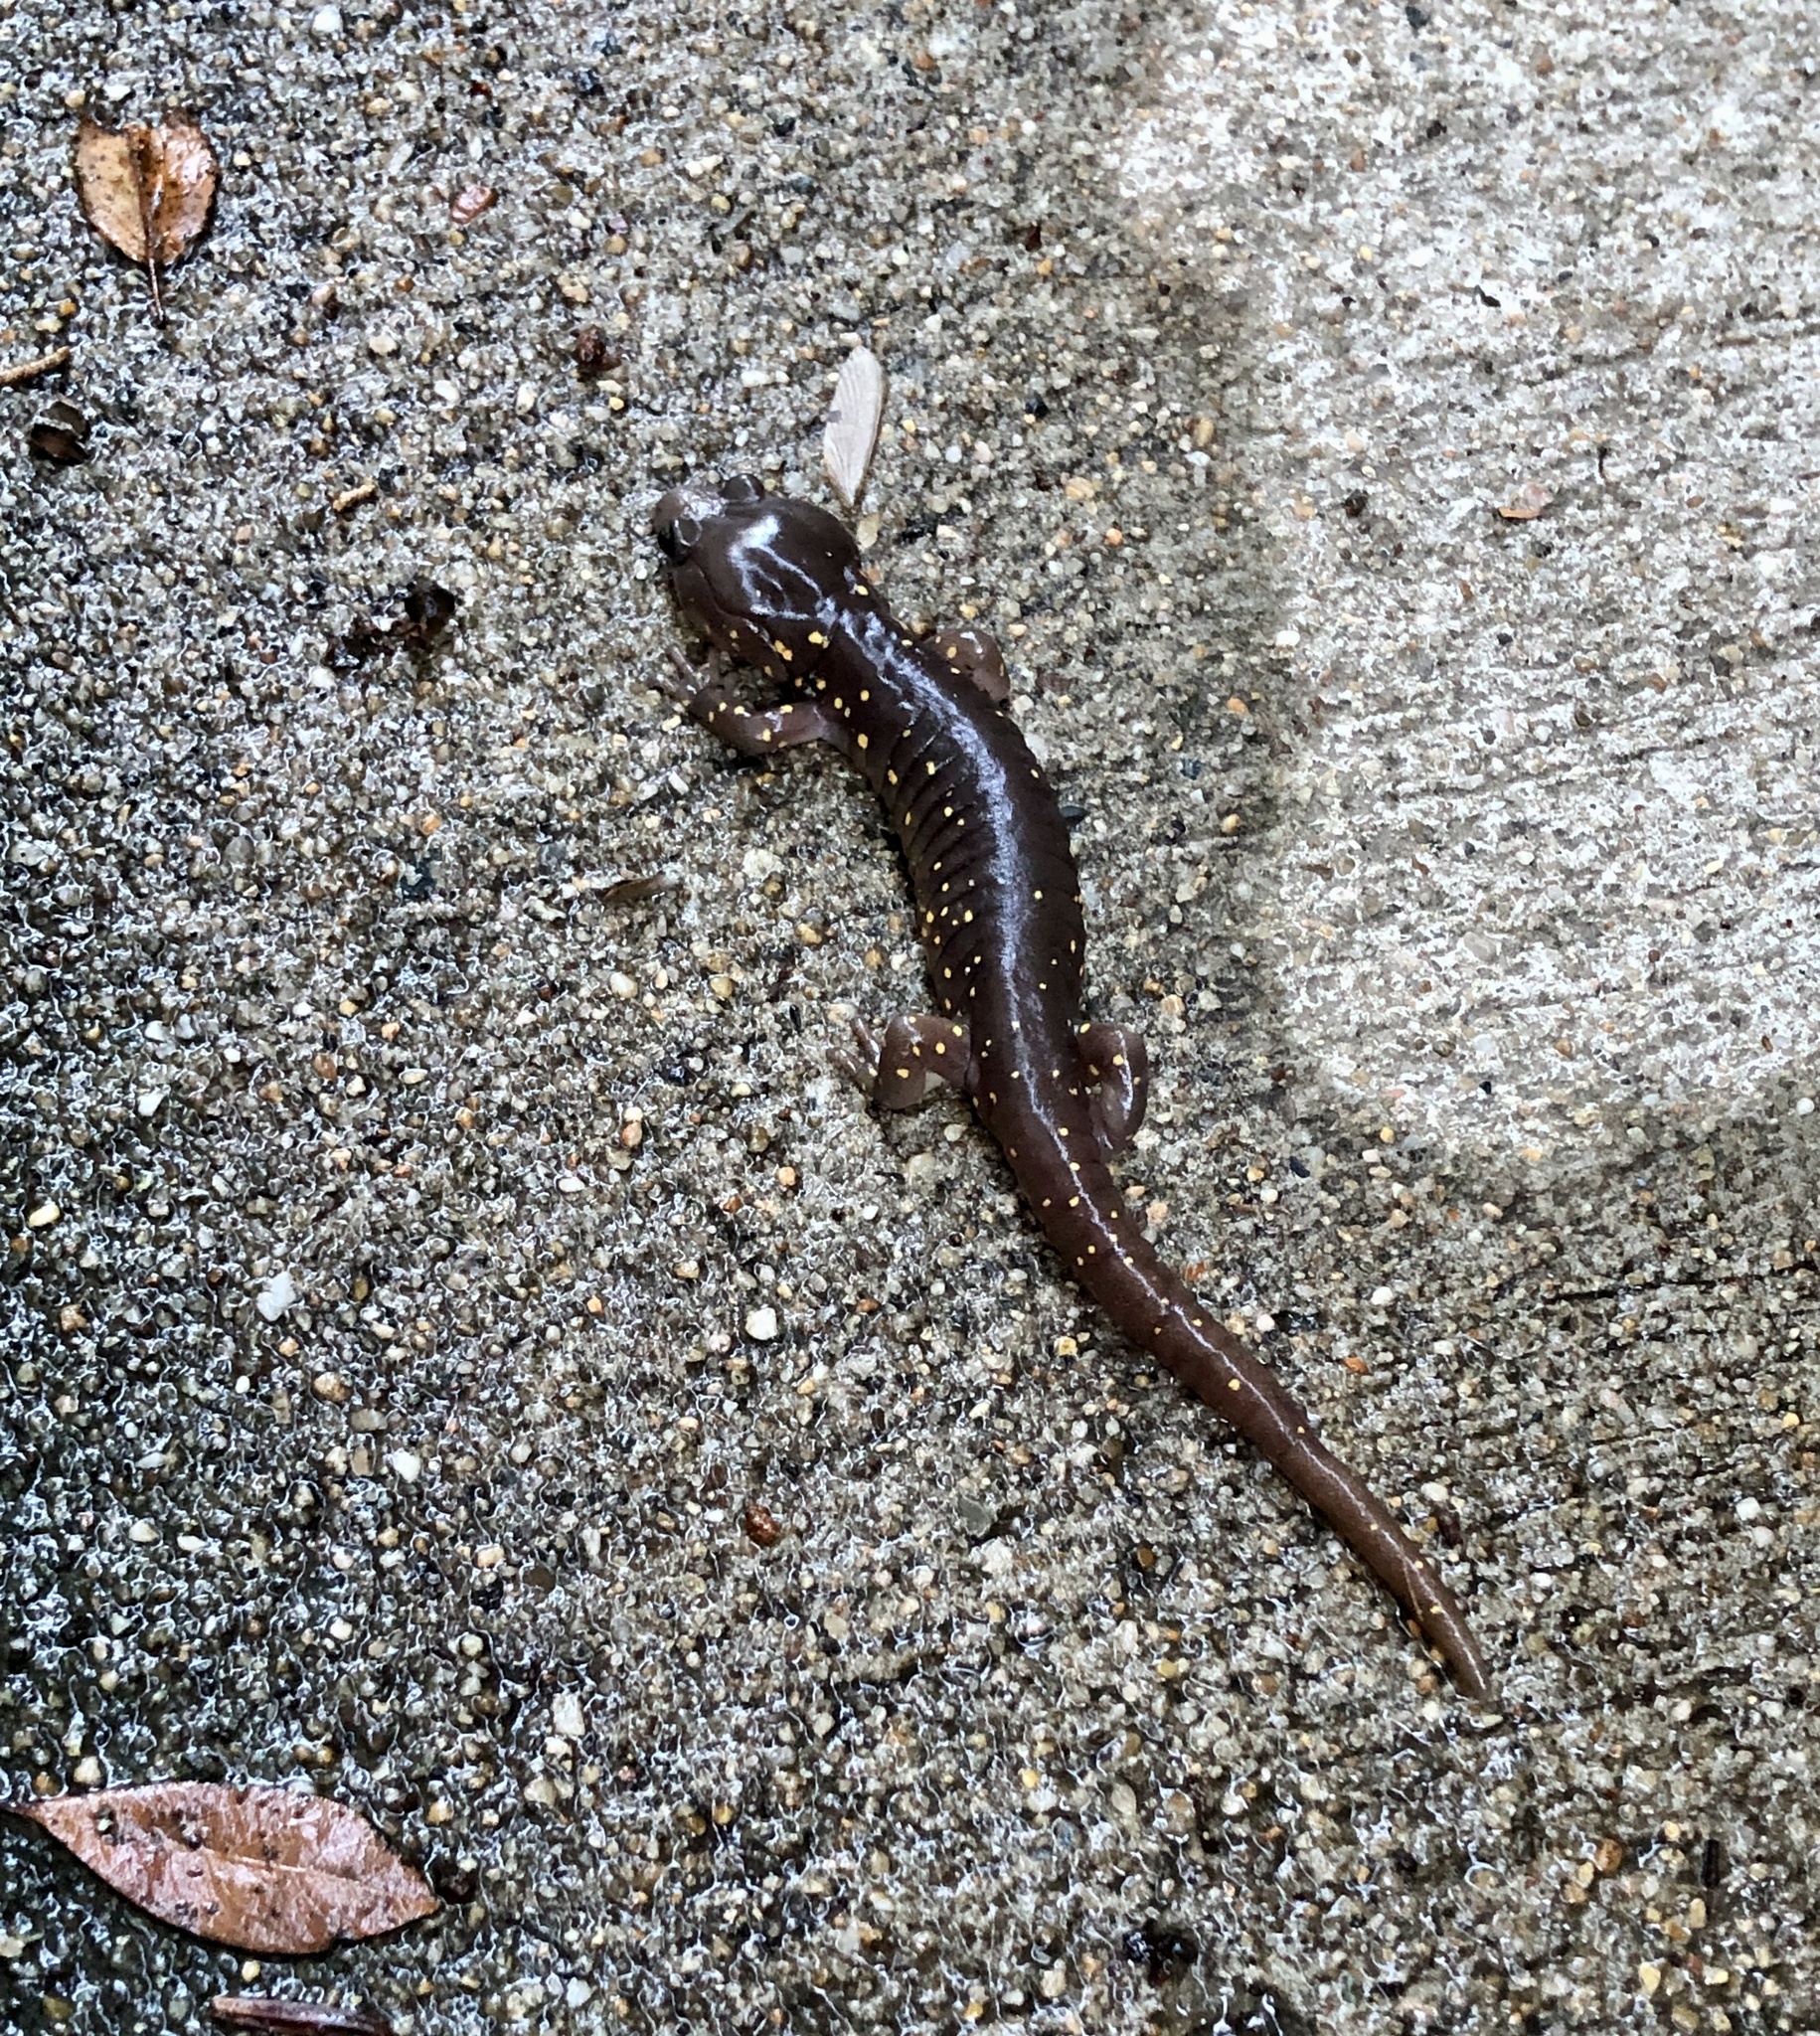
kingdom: Animalia
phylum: Chordata
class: Amphibia
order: Caudata
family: Plethodontidae
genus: Aneides
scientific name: Aneides lugubris
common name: Arboreal salamander
